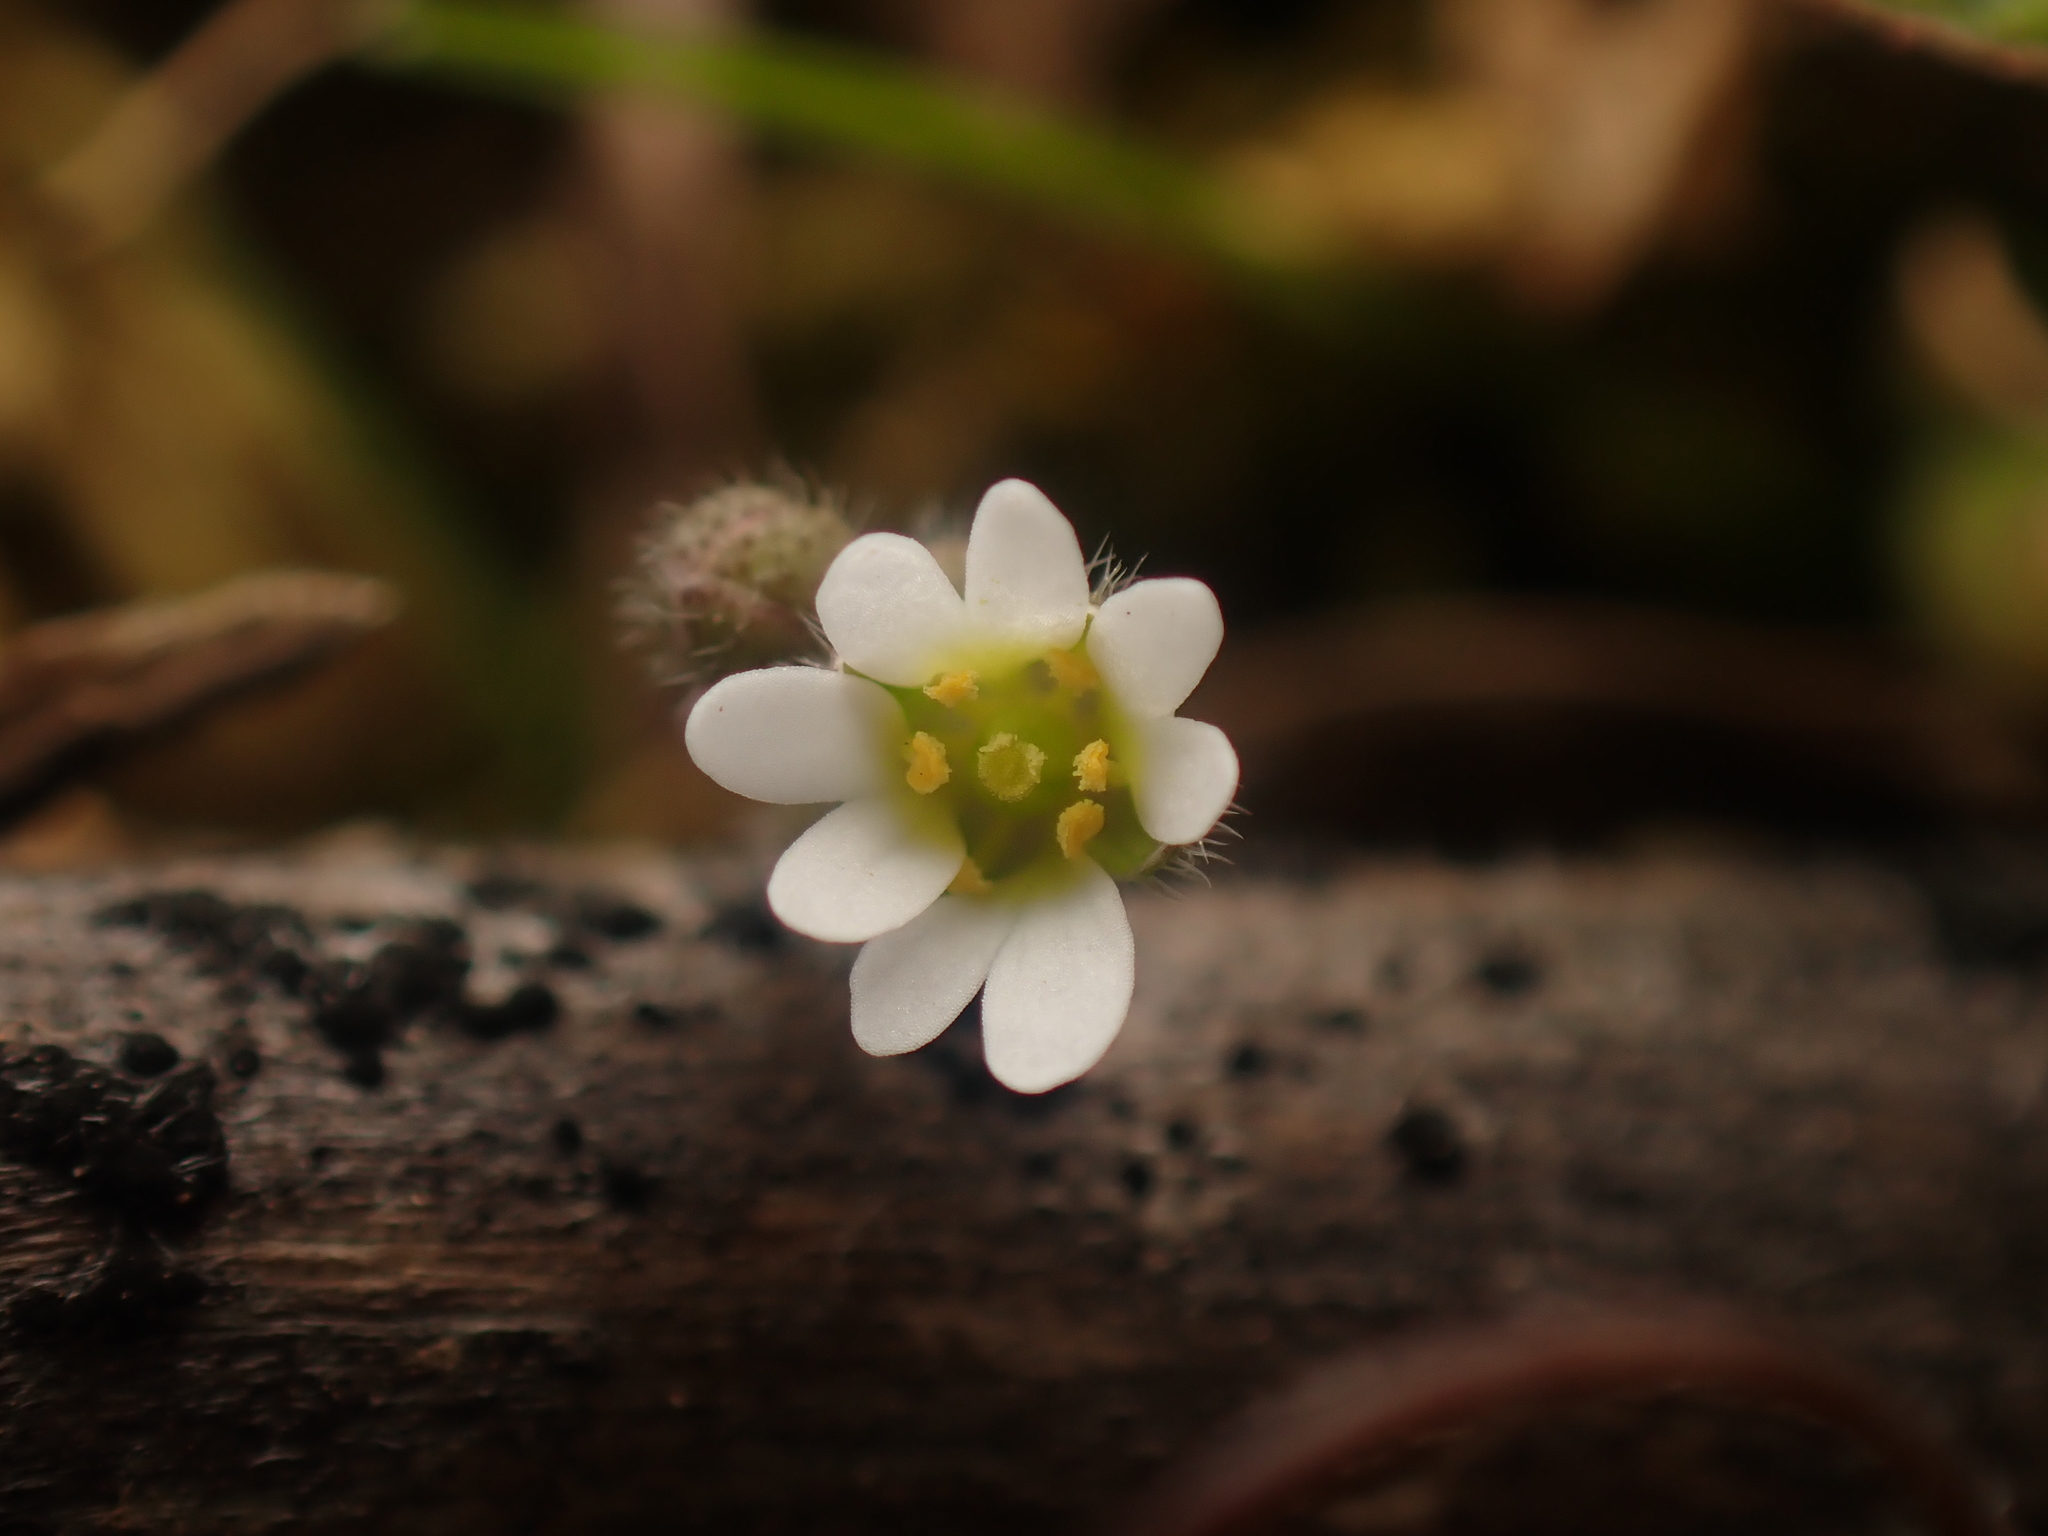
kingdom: Plantae
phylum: Tracheophyta
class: Magnoliopsida
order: Brassicales
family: Brassicaceae
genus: Draba
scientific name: Draba verna
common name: Spring draba
